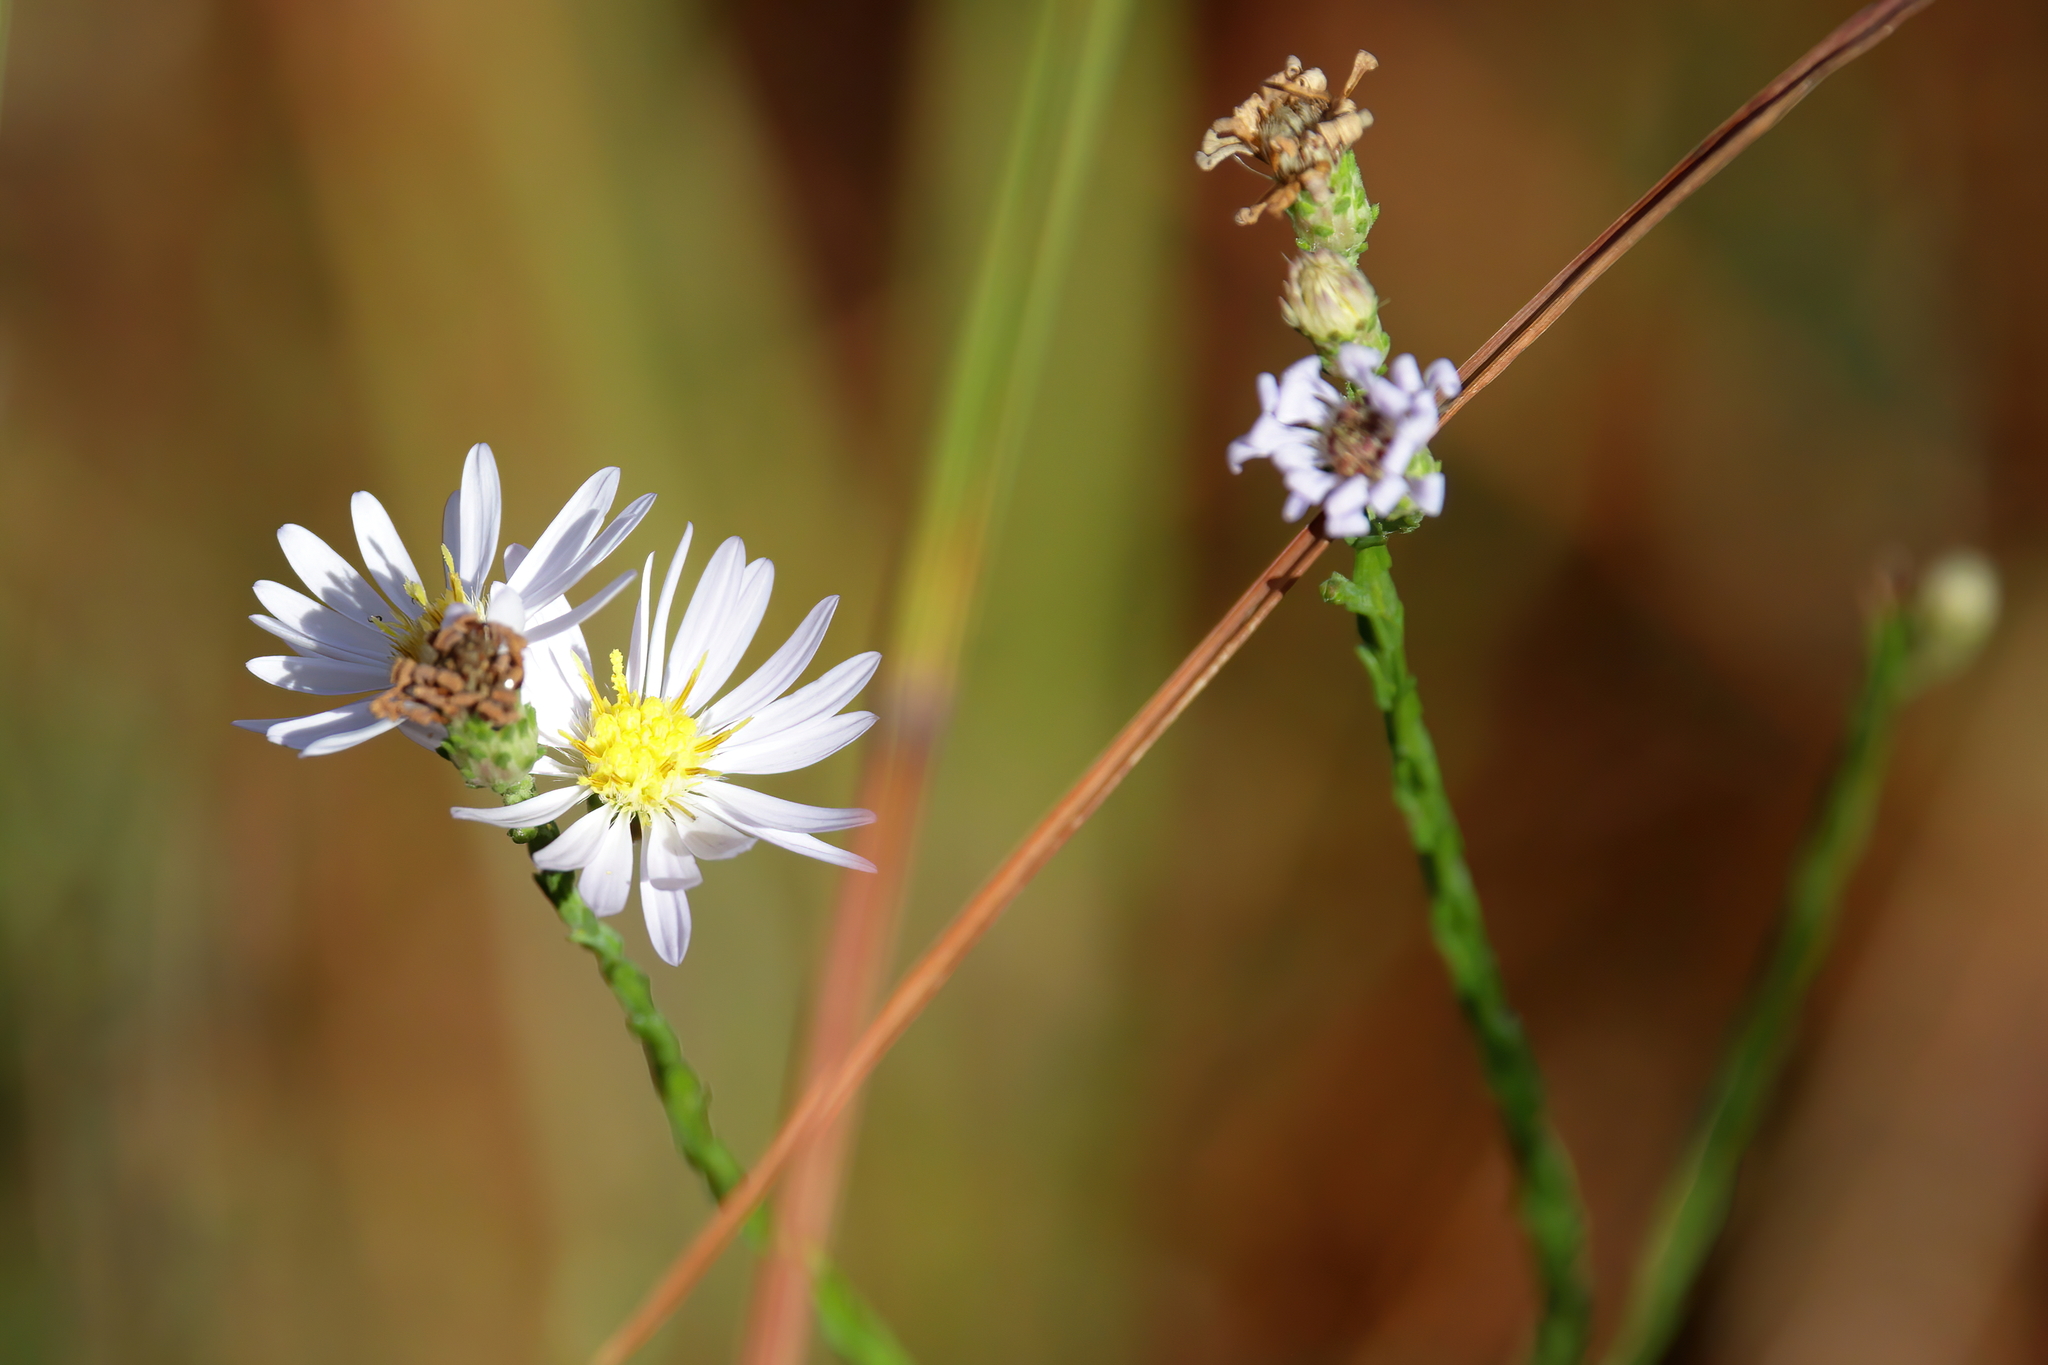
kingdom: Plantae
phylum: Tracheophyta
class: Magnoliopsida
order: Asterales
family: Asteraceae
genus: Symphyotrichum
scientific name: Symphyotrichum adnatum
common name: Scale-leaf aster
